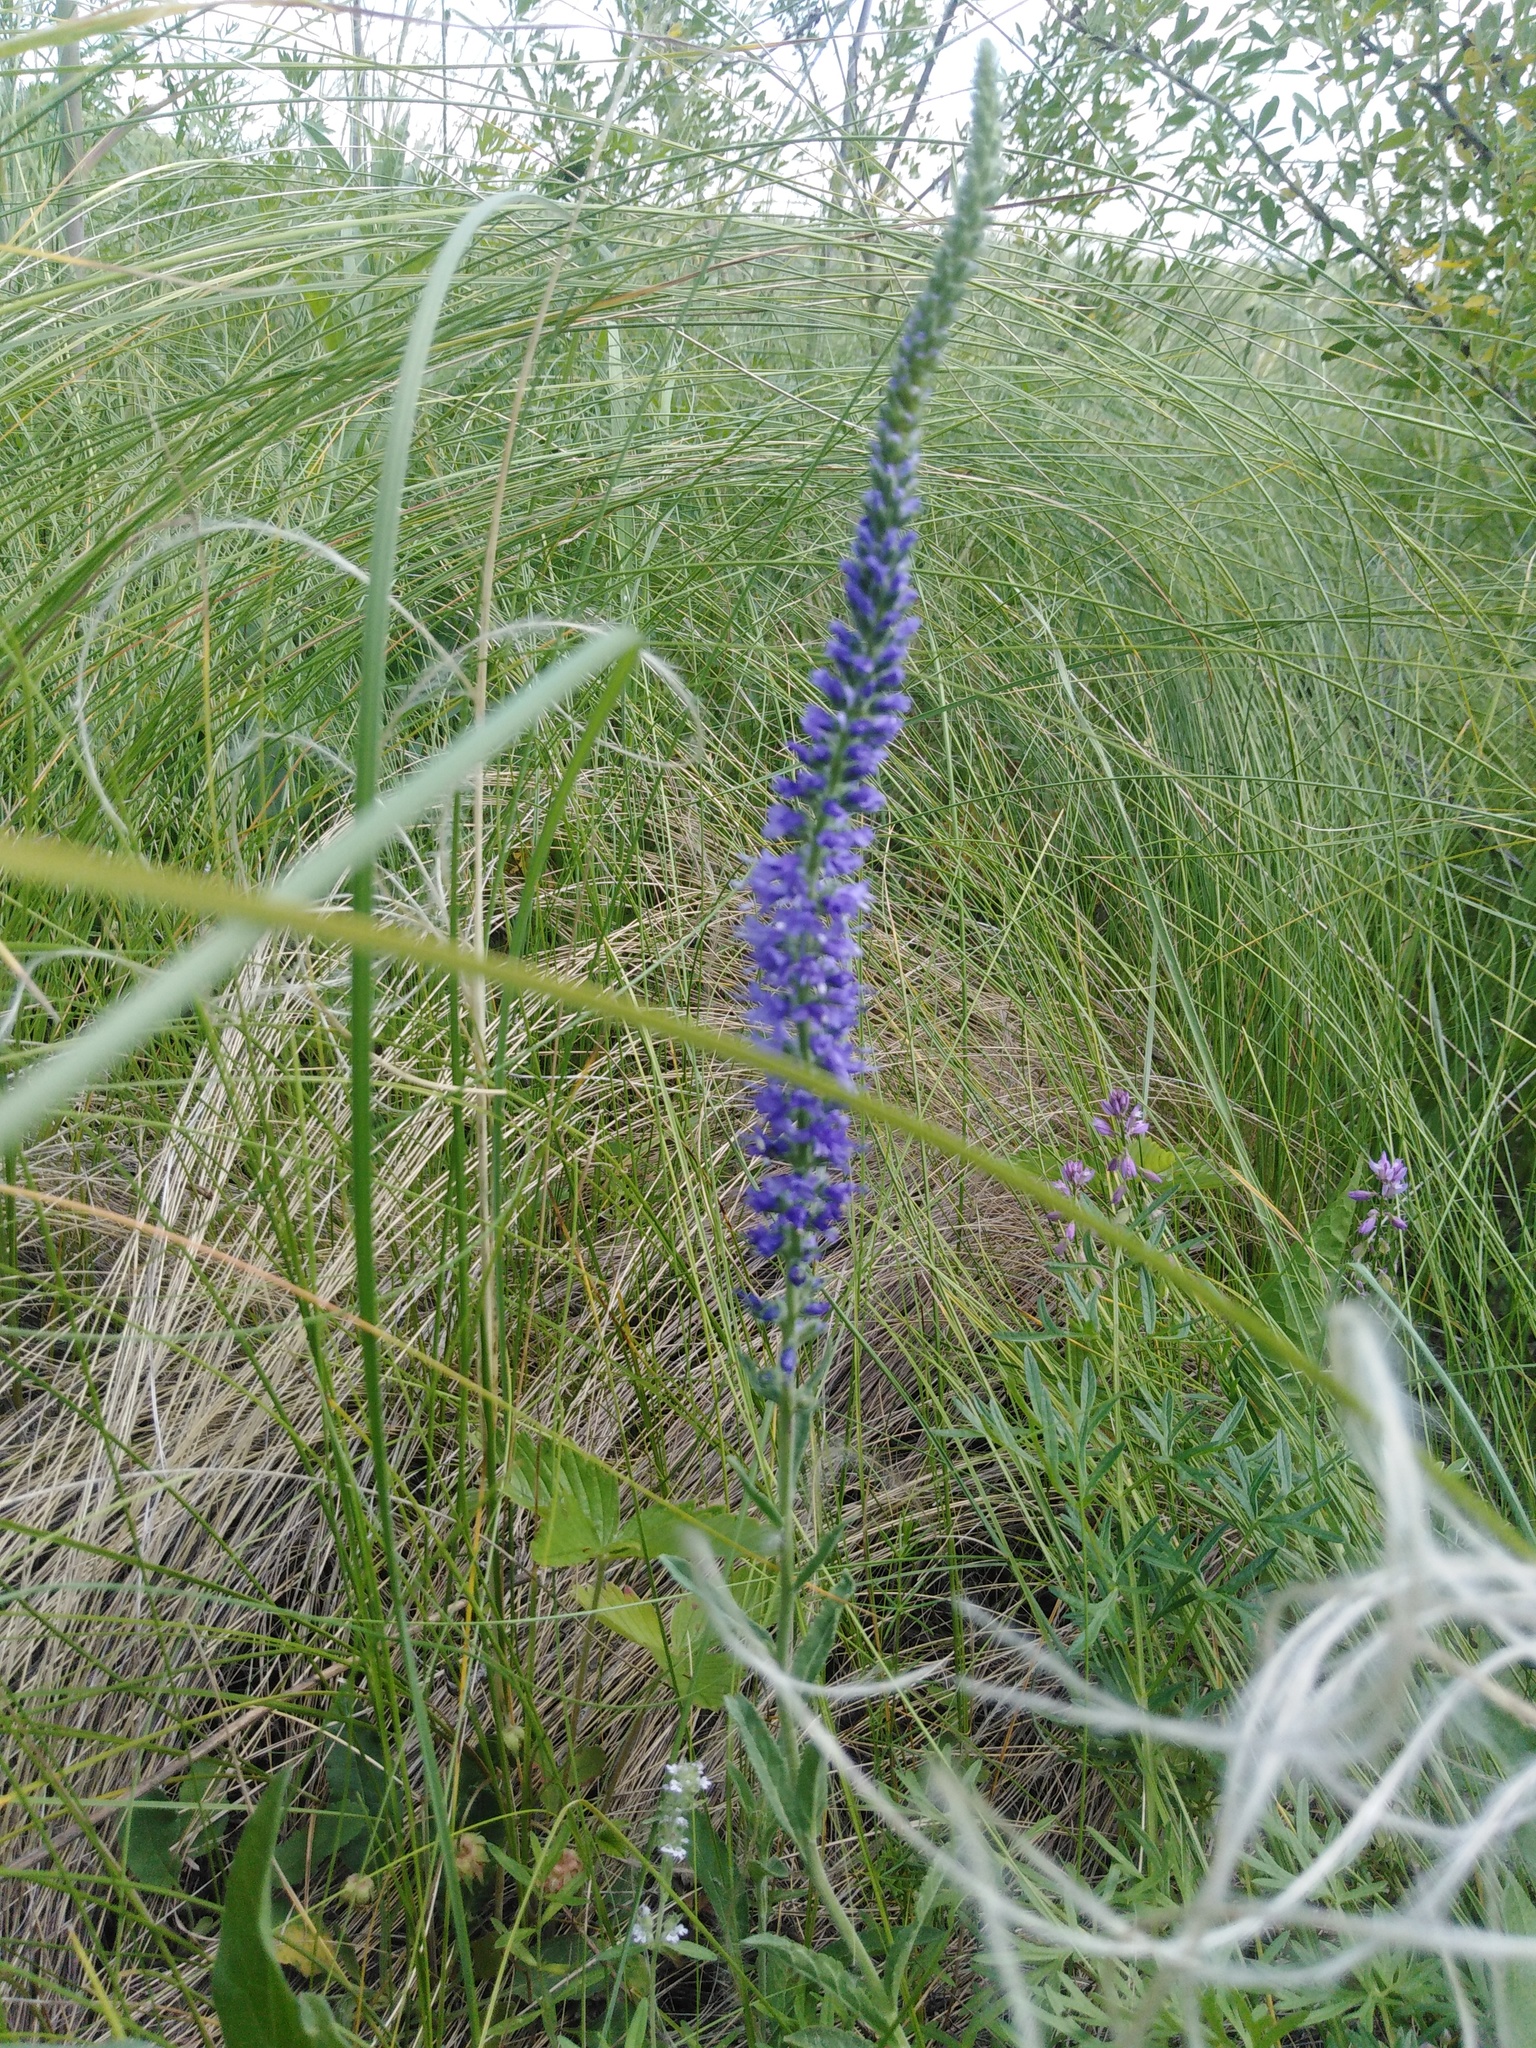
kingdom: Plantae
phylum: Tracheophyta
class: Magnoliopsida
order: Lamiales
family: Plantaginaceae
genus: Veronica
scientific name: Veronica spicata
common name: Spiked speedwell
